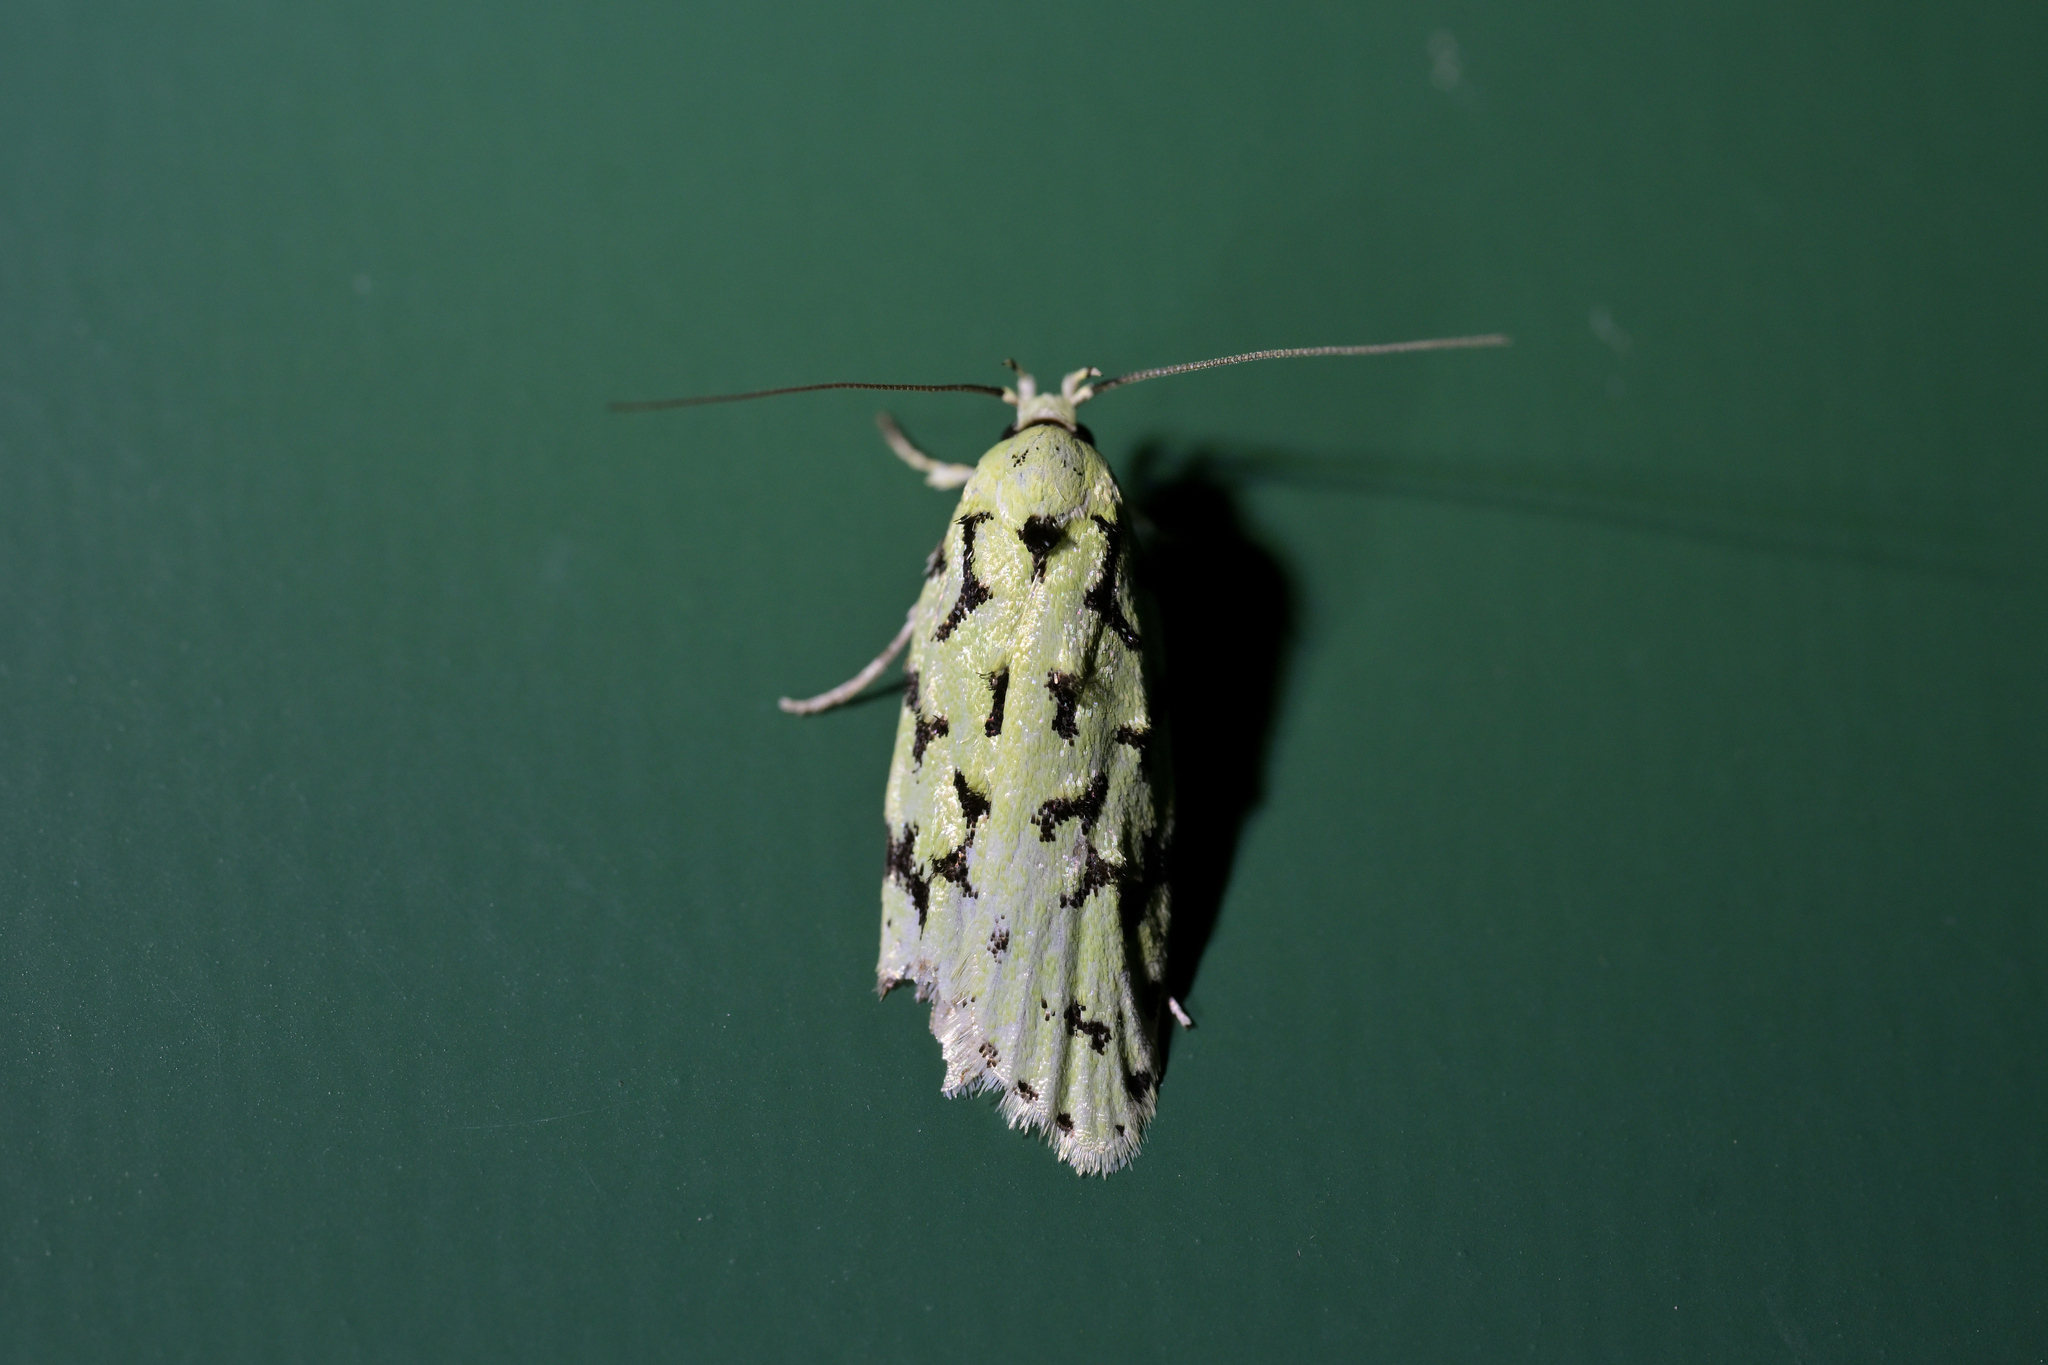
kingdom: Animalia
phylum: Arthropoda
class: Insecta
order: Lepidoptera
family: Oecophoridae
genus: Izatha
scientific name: Izatha huttoni
